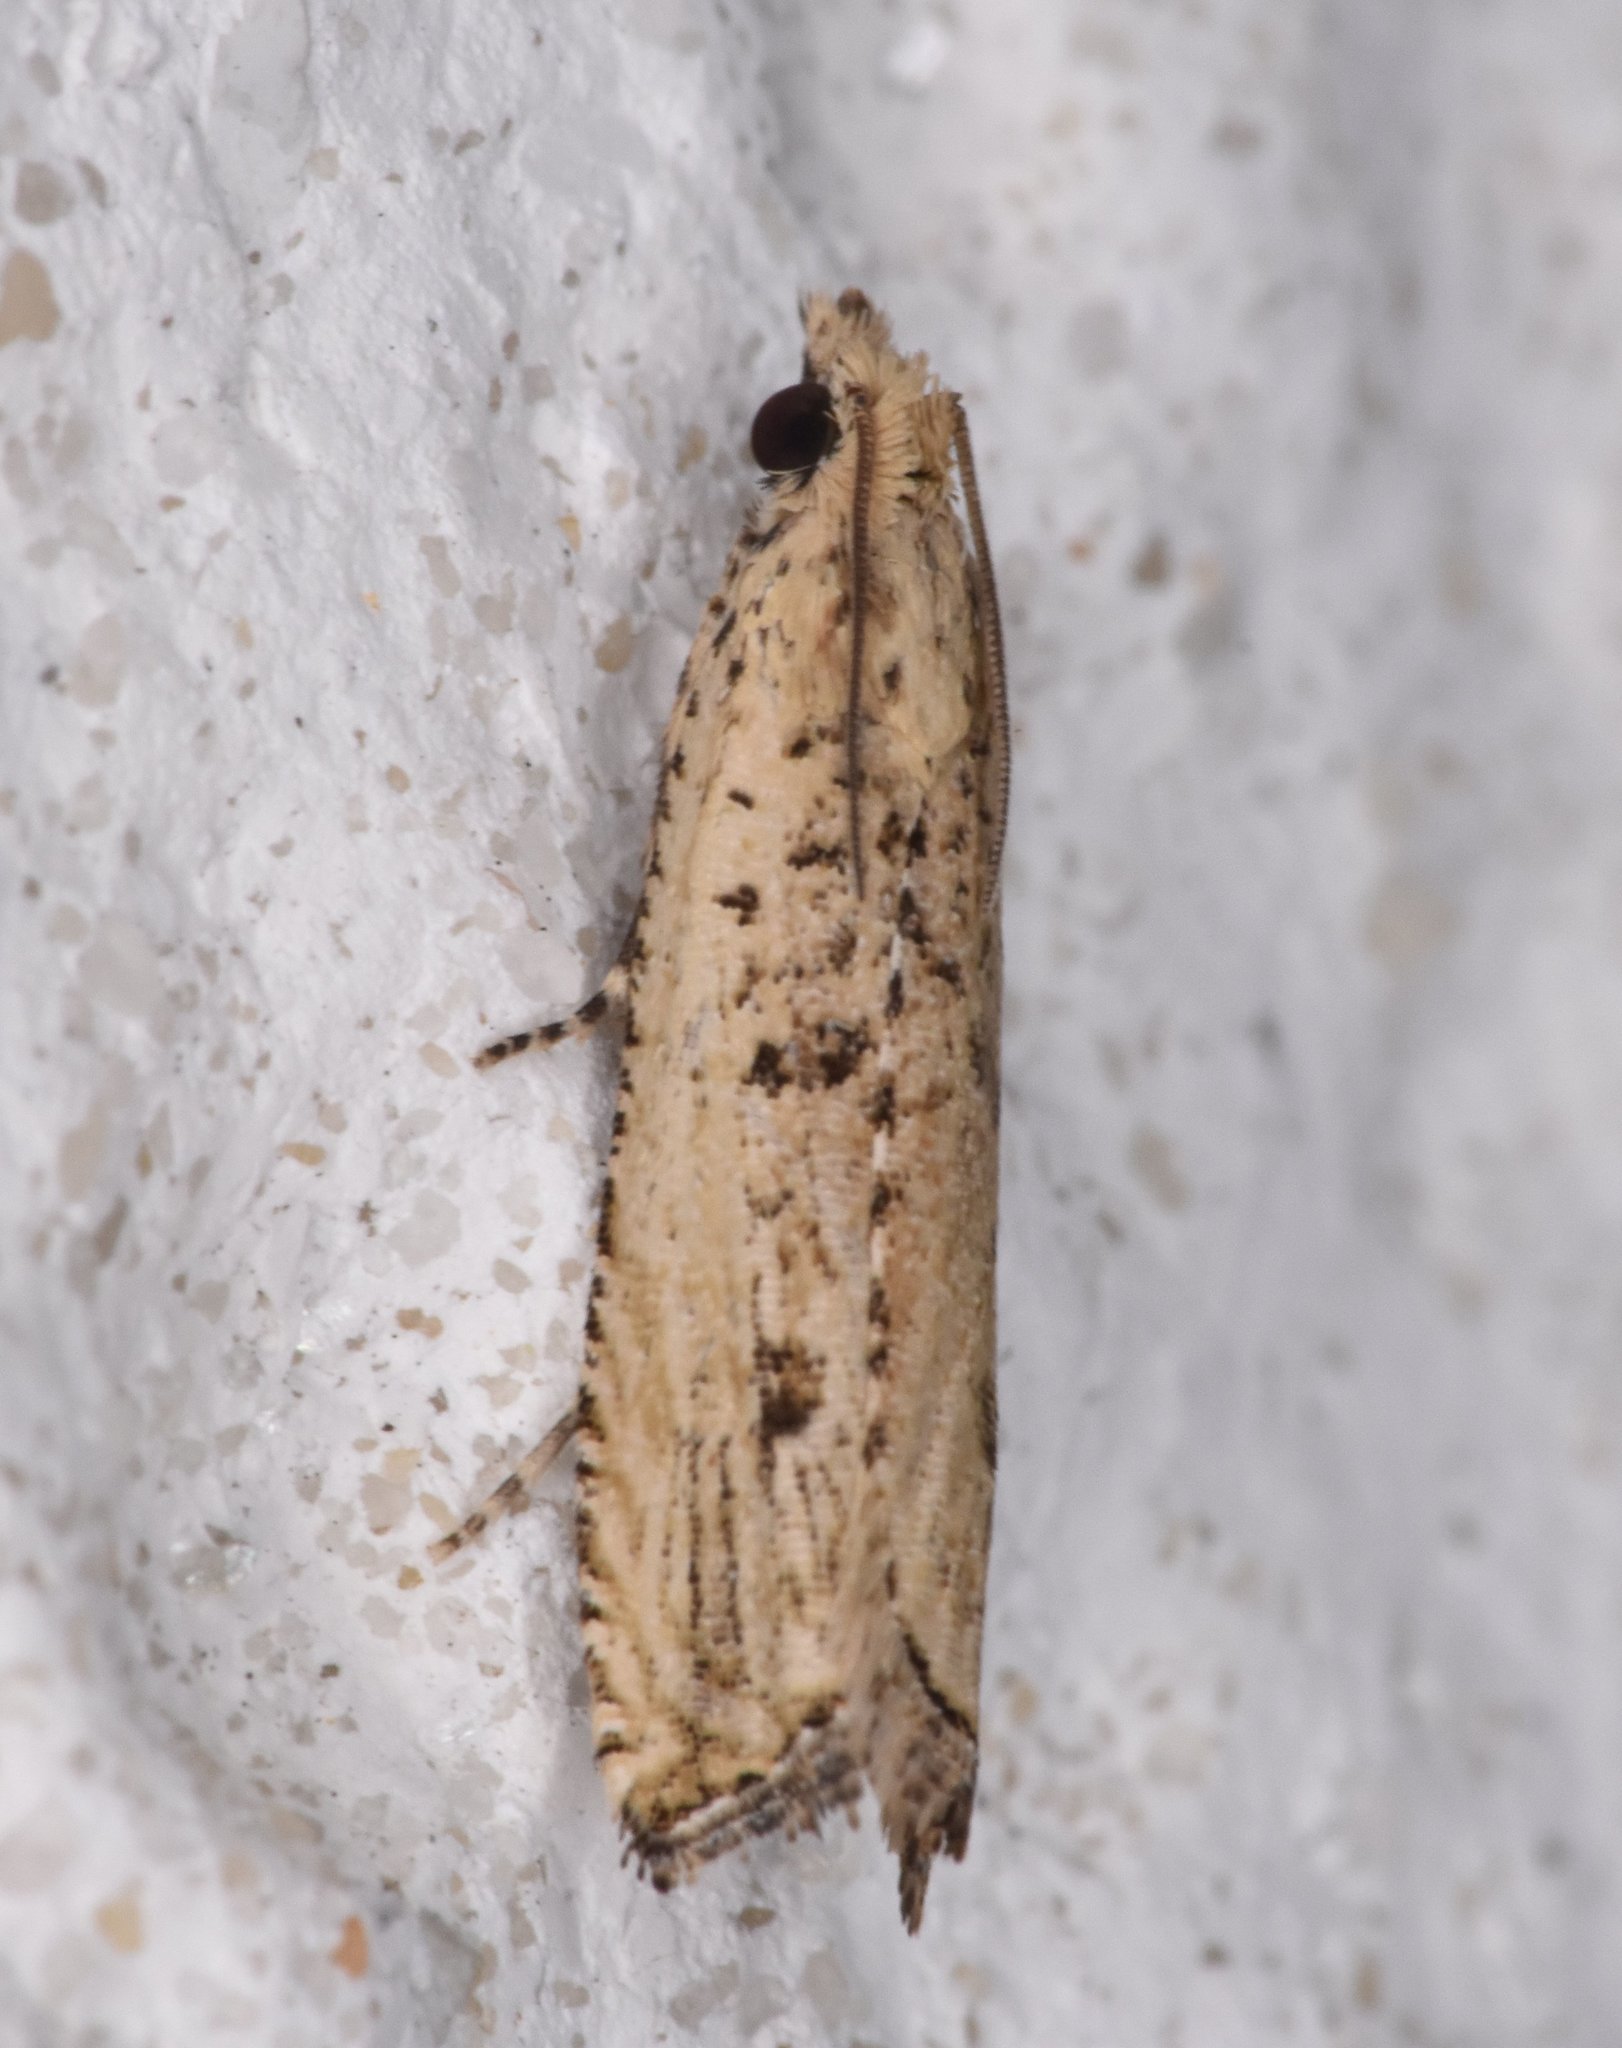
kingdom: Animalia
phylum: Arthropoda
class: Insecta
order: Lepidoptera
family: Tortricidae
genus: Bactra
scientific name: Bactra verutana
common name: Javelin moth
